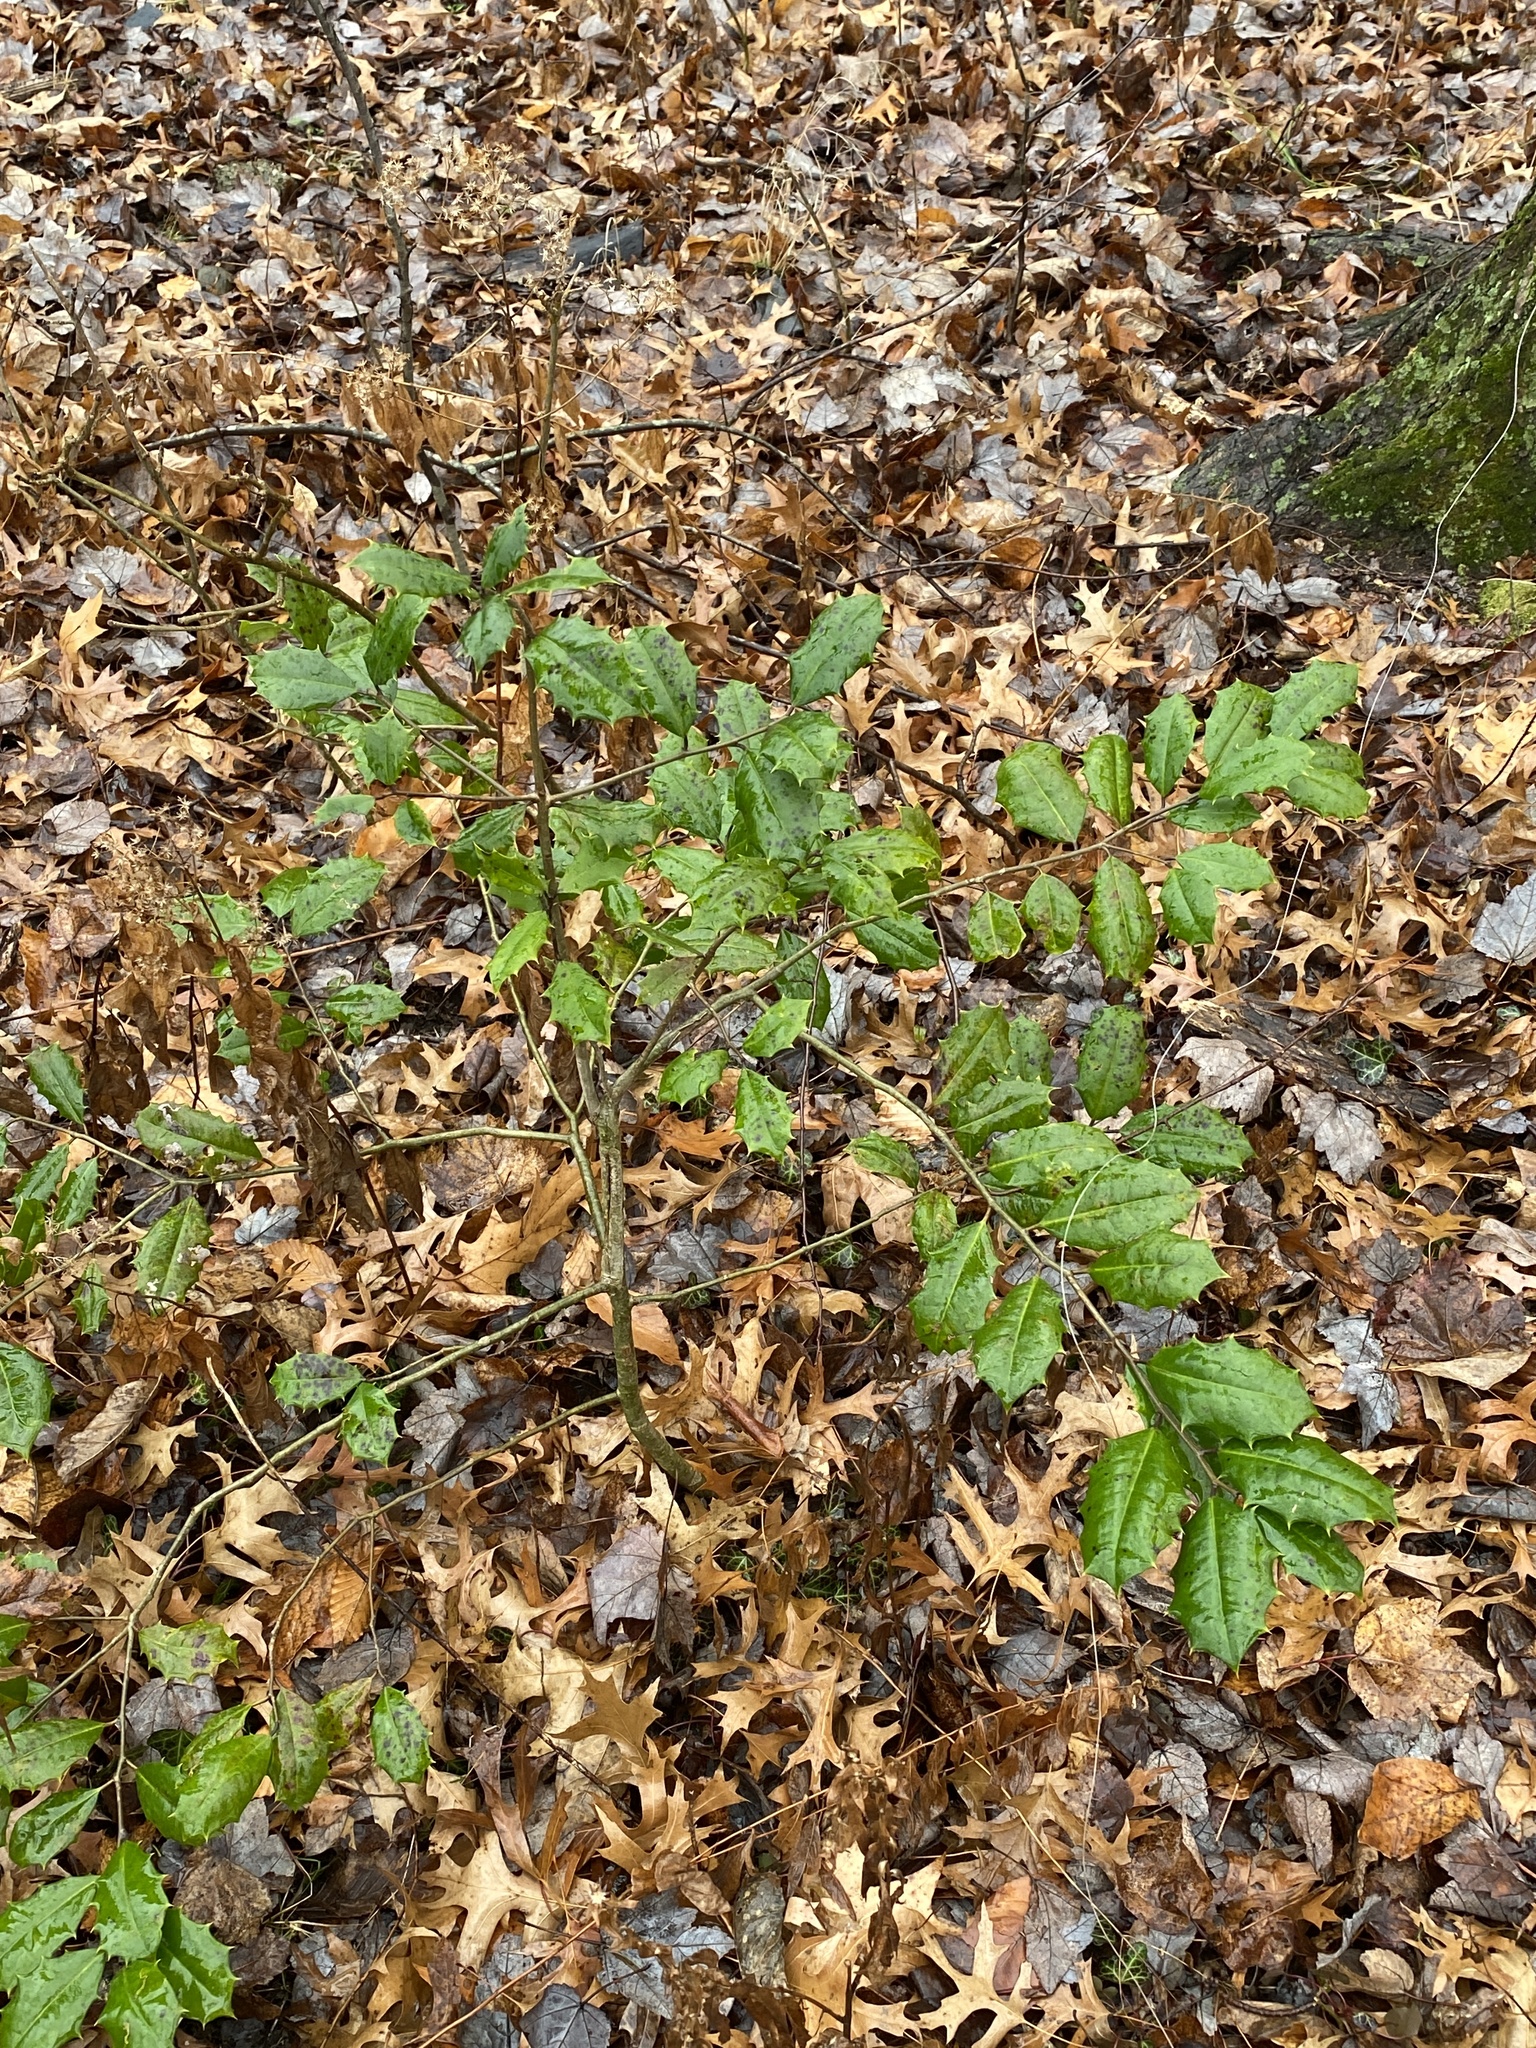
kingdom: Plantae
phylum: Tracheophyta
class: Magnoliopsida
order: Aquifoliales
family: Aquifoliaceae
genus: Ilex
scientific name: Ilex opaca
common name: American holly
